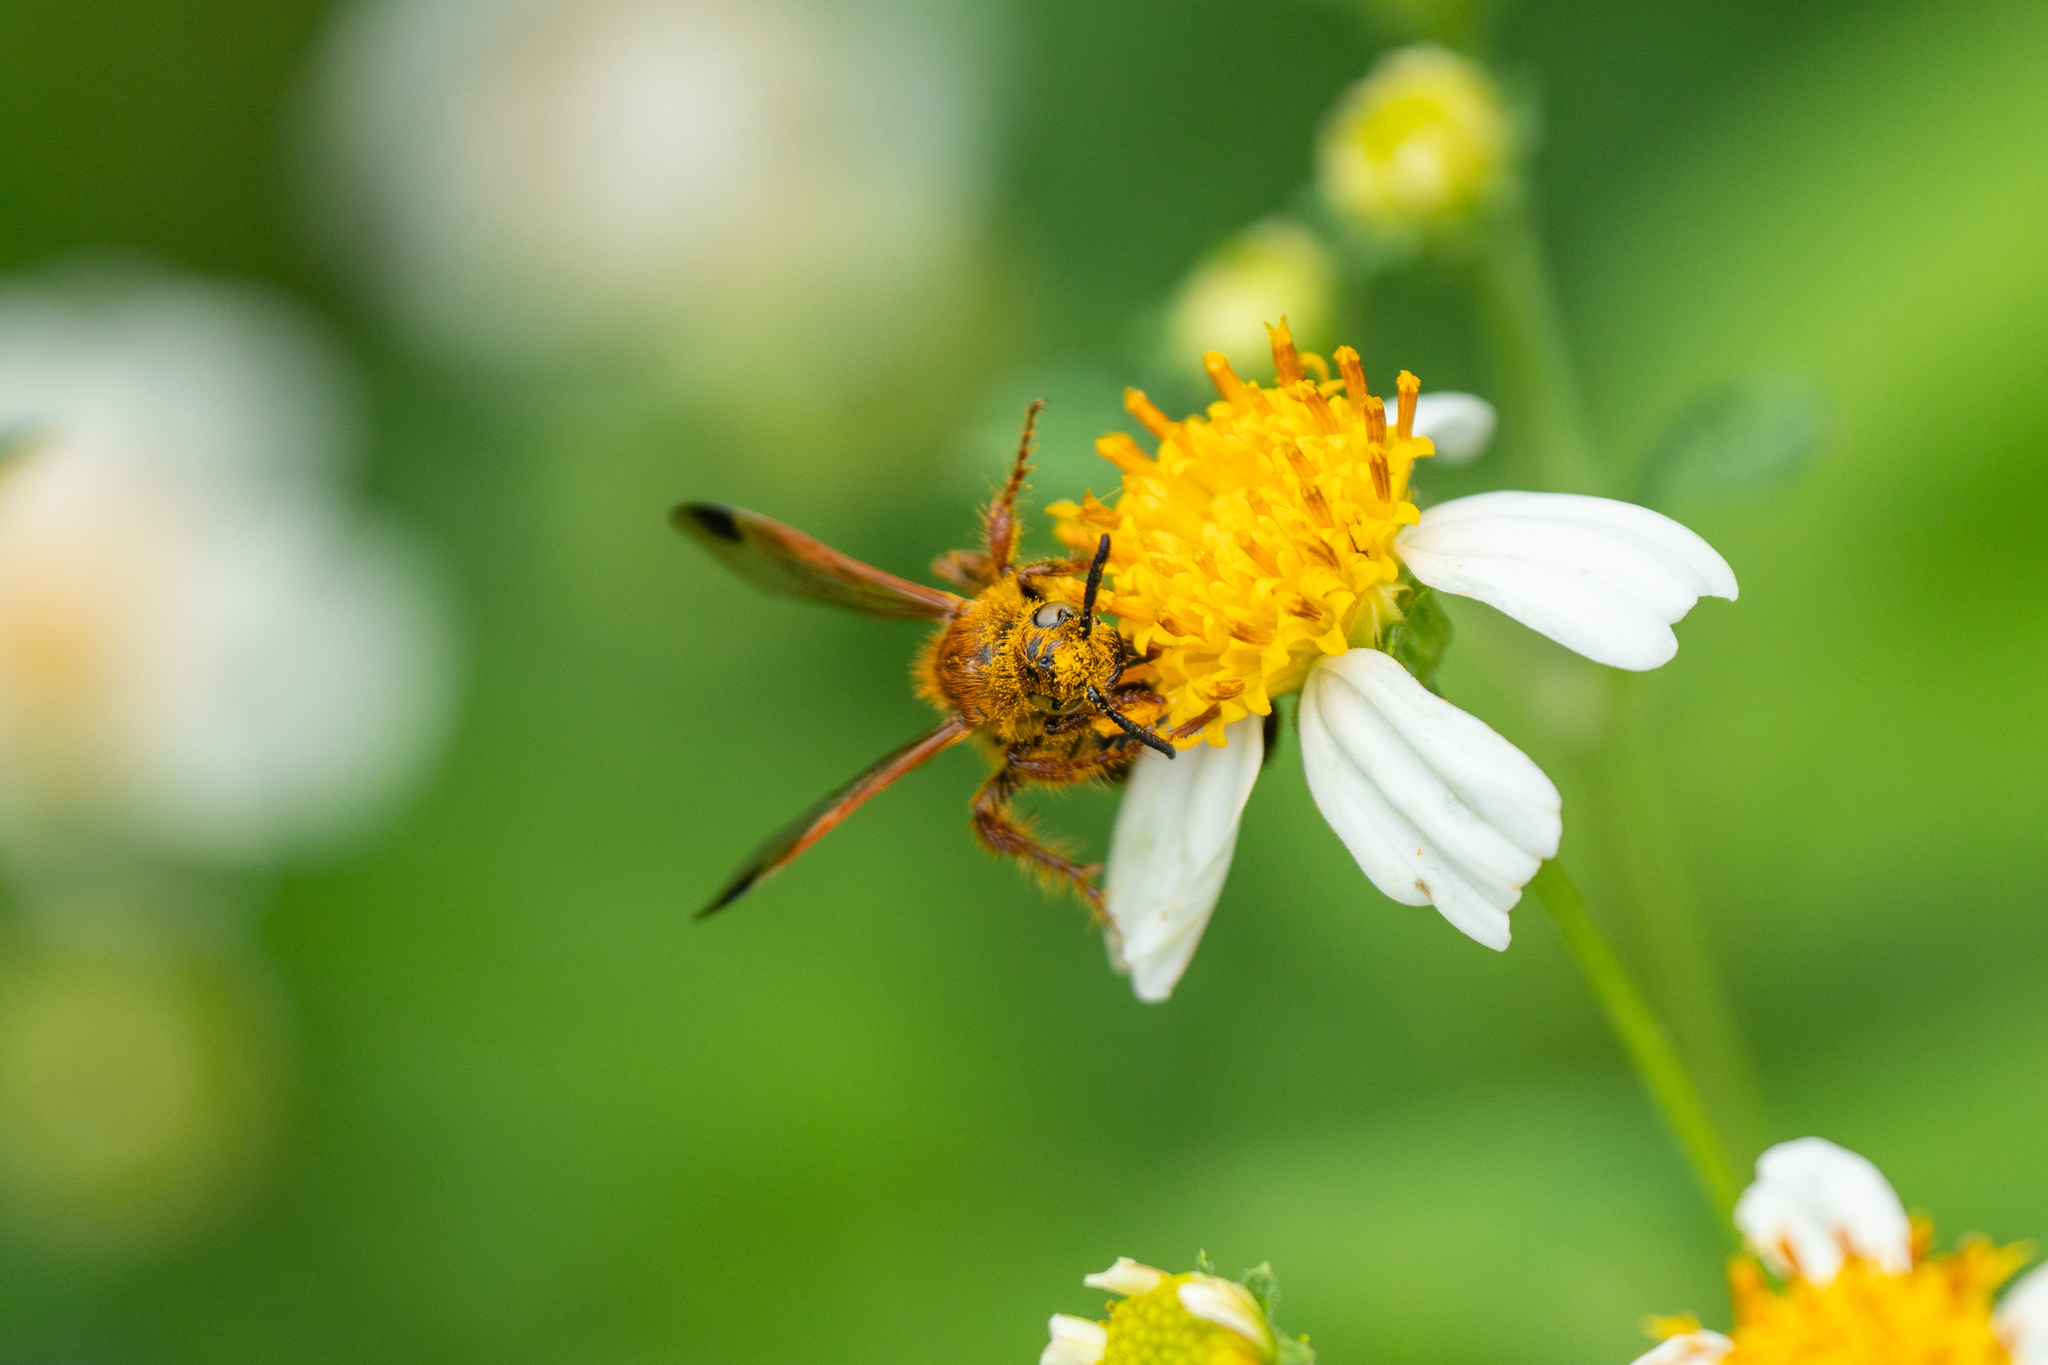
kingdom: Animalia
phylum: Arthropoda
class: Insecta
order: Hymenoptera
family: Scoliidae
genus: Campsomeris
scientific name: Campsomeris phalerata
